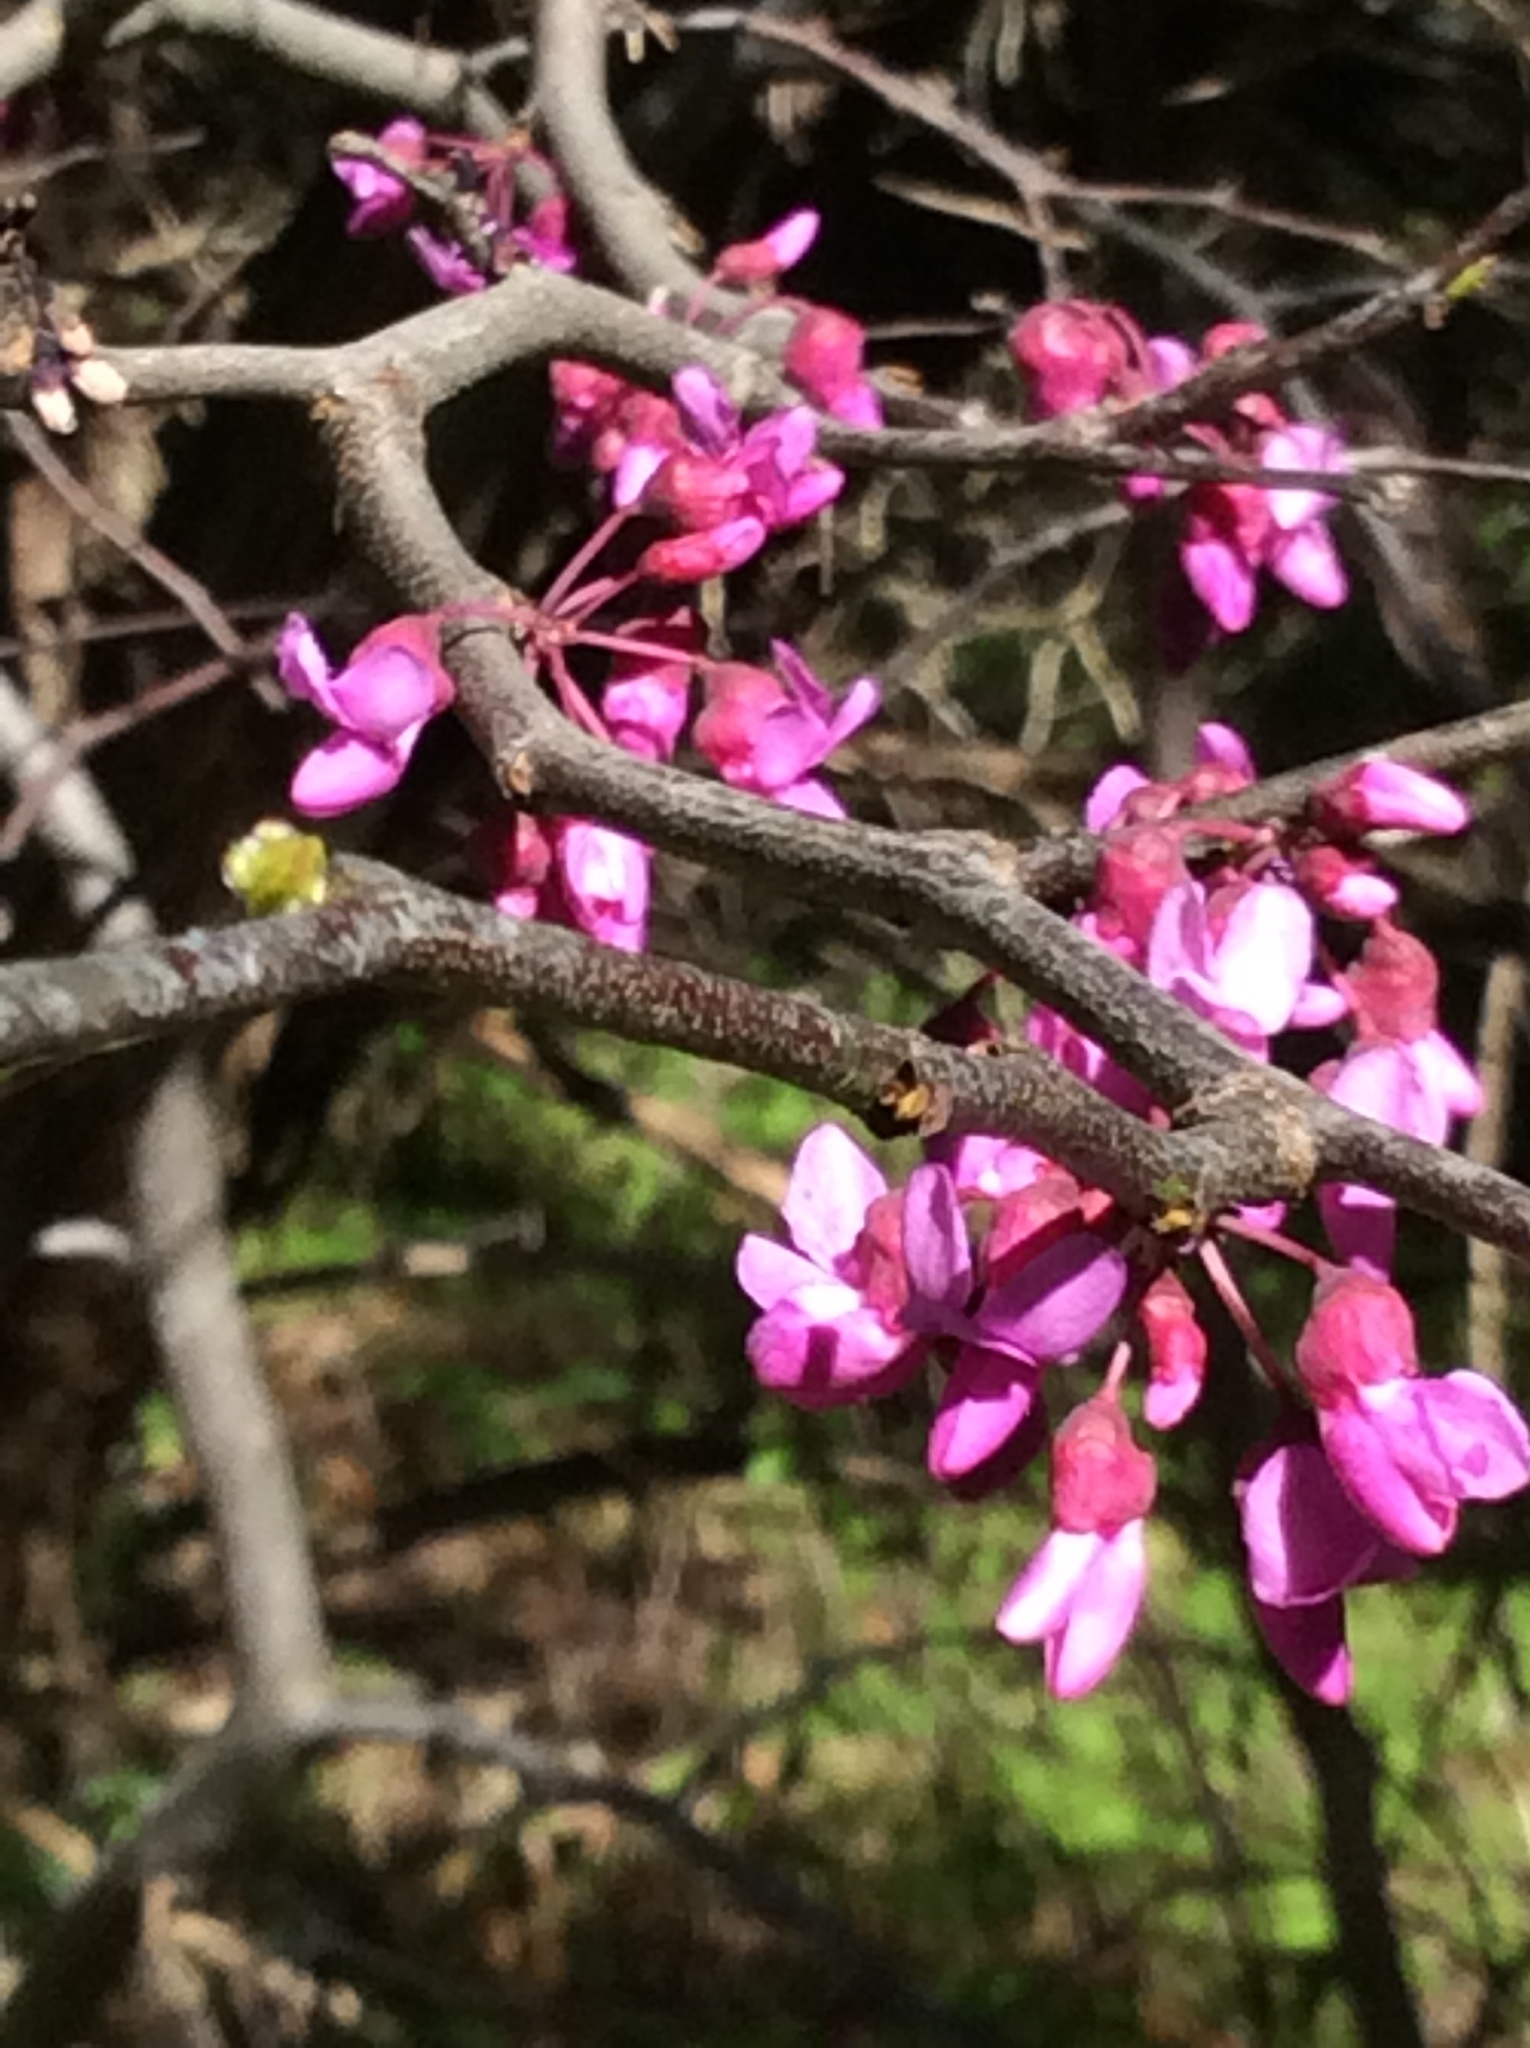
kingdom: Plantae
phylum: Tracheophyta
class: Magnoliopsida
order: Fabales
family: Fabaceae
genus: Cercis
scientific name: Cercis canadensis
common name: Eastern redbud
